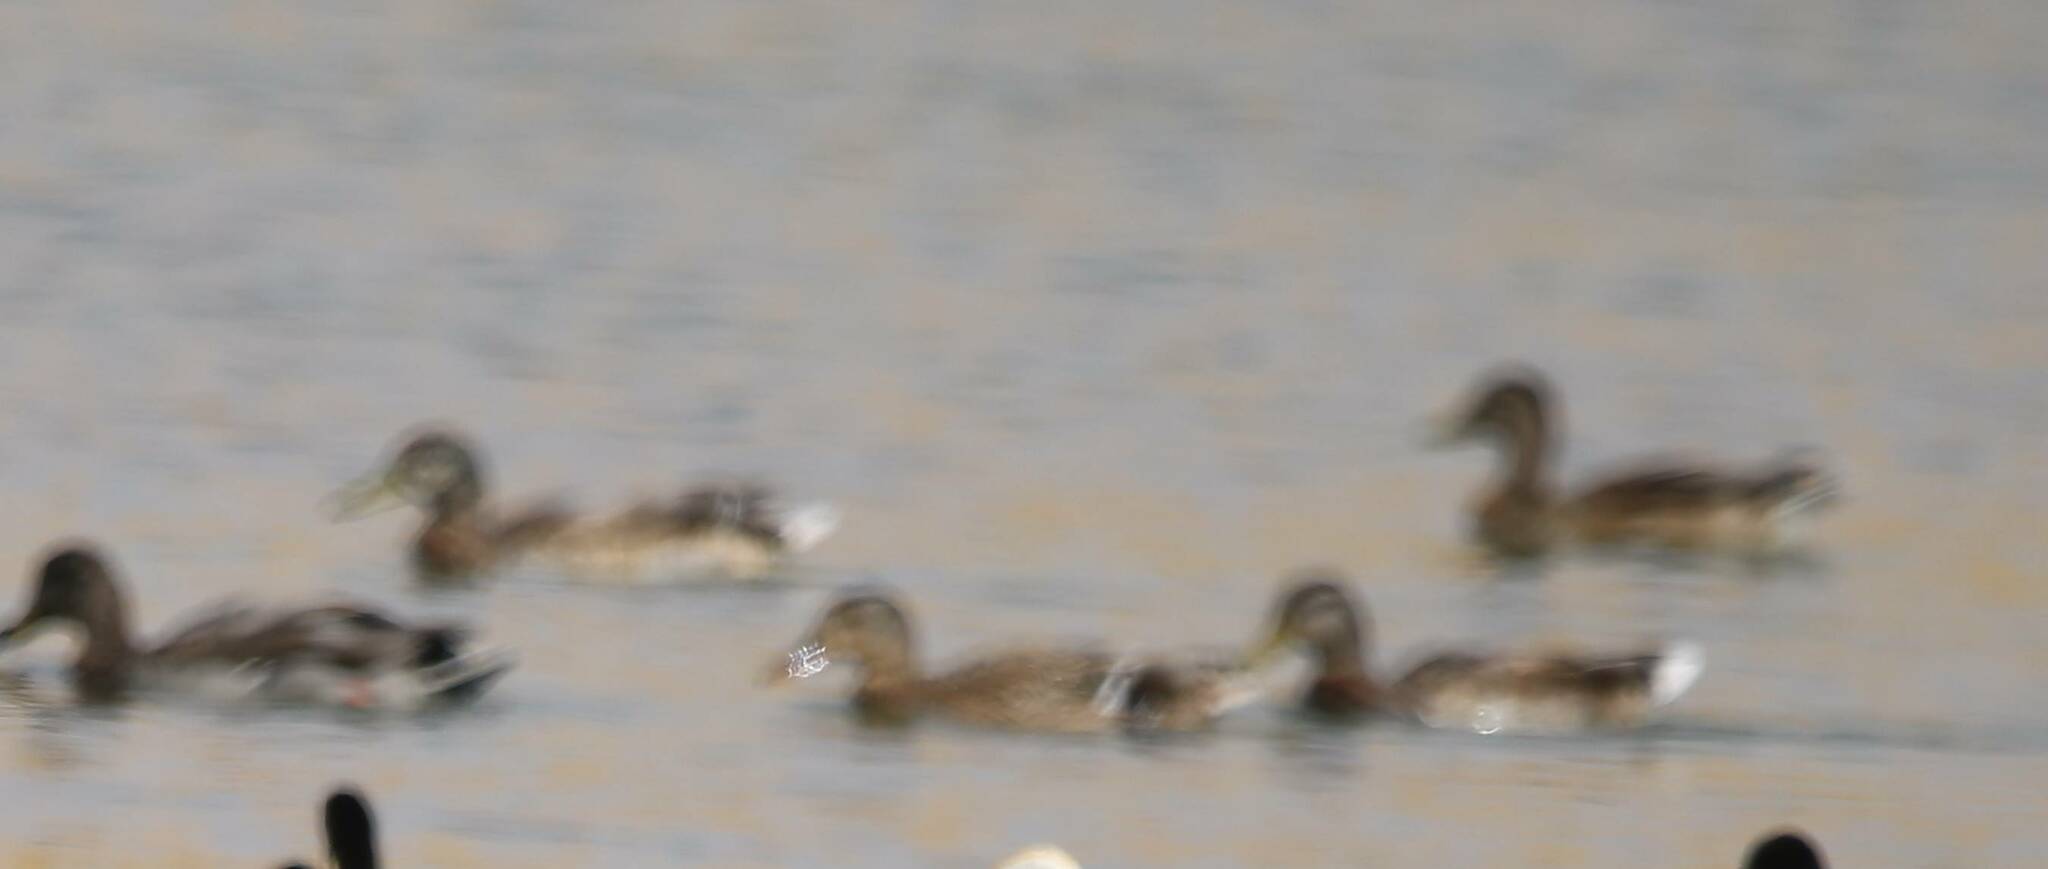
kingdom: Animalia
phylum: Chordata
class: Aves
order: Anseriformes
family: Anatidae
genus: Anas
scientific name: Anas platyrhynchos
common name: Mallard
